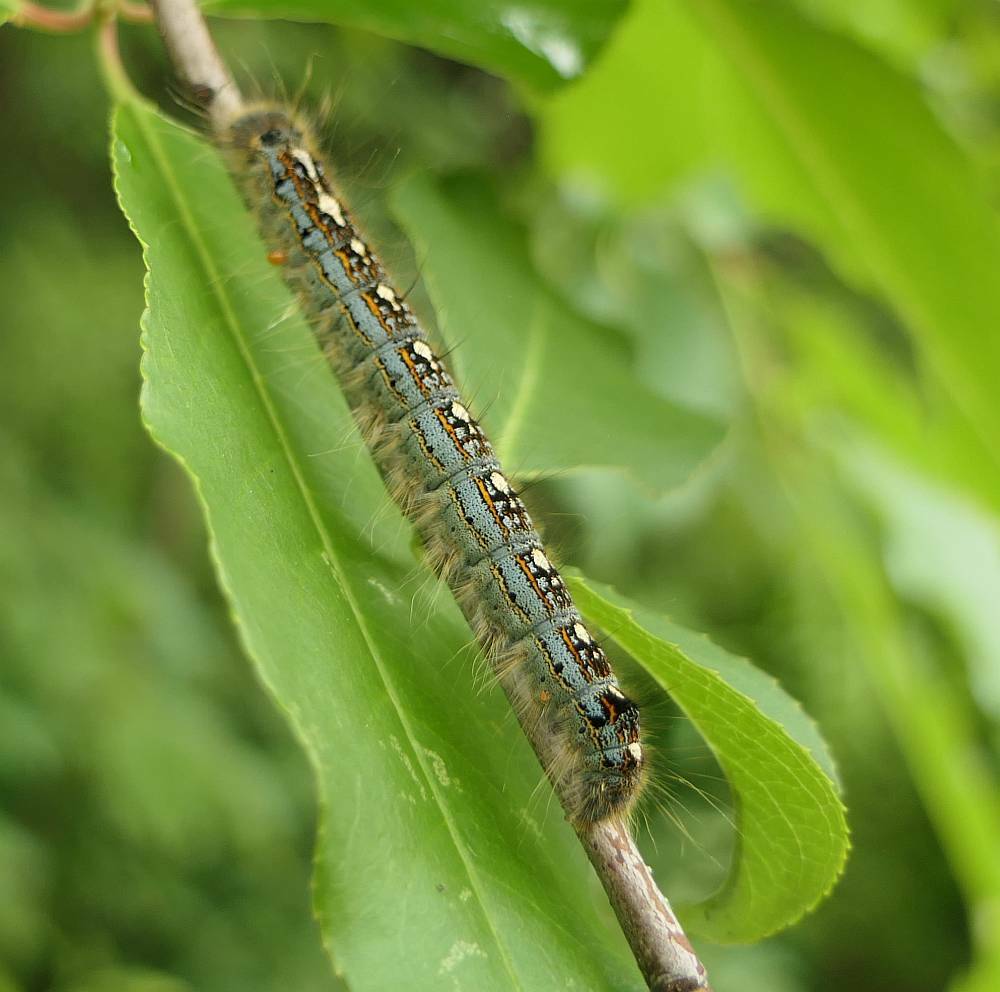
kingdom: Animalia
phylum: Arthropoda
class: Insecta
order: Lepidoptera
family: Lasiocampidae
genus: Malacosoma
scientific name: Malacosoma disstria
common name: Forest tent caterpillar
